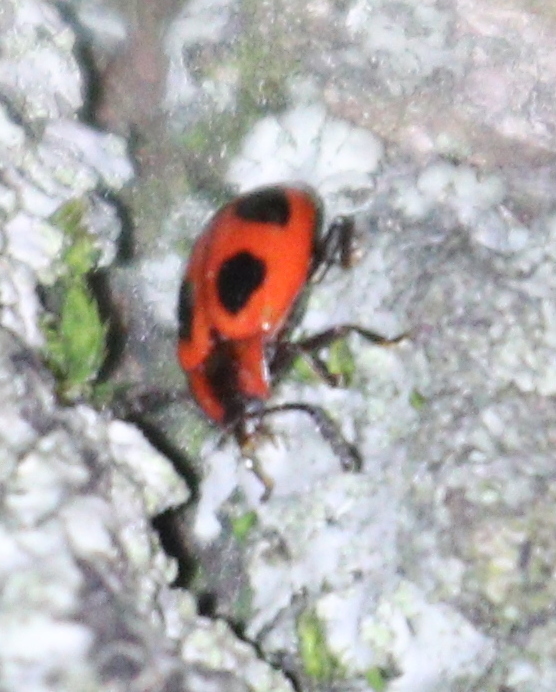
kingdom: Animalia
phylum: Arthropoda
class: Insecta
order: Coleoptera
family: Endomychidae
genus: Endomychus
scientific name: Endomychus coccineus
